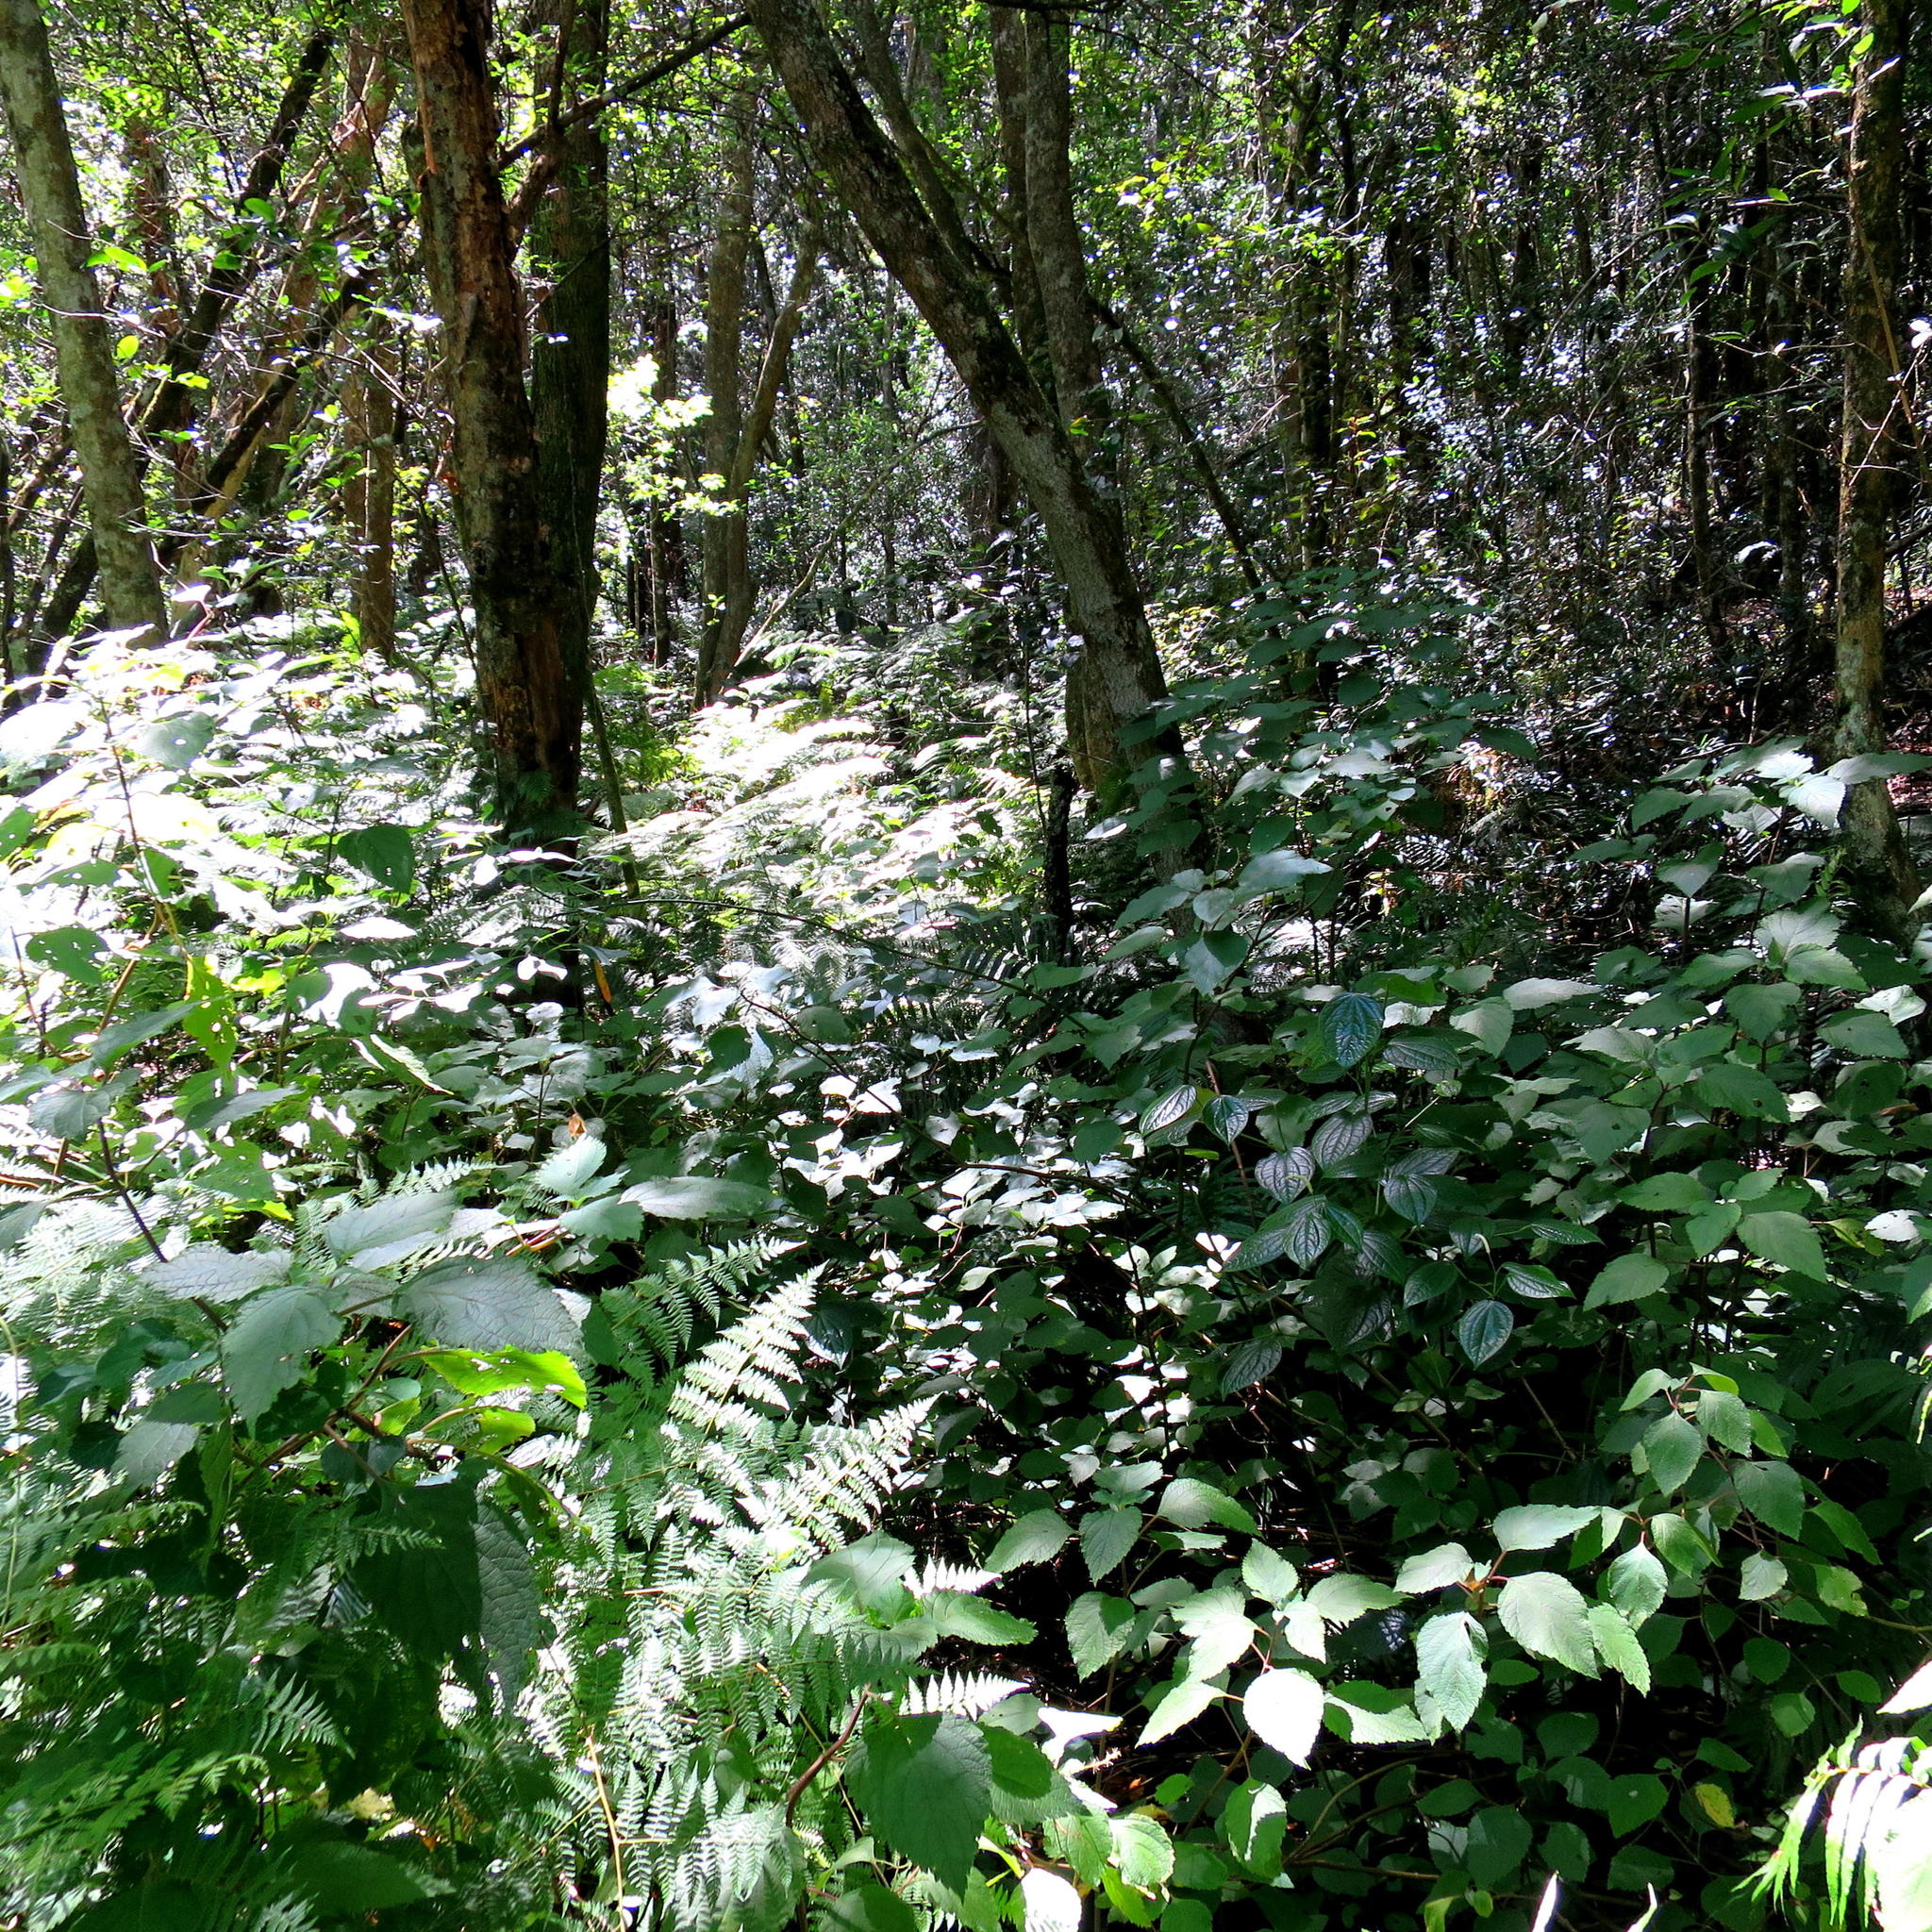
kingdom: Plantae
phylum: Tracheophyta
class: Magnoliopsida
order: Lamiales
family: Lamiaceae
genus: Plectranthus
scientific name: Plectranthus fruticosus
